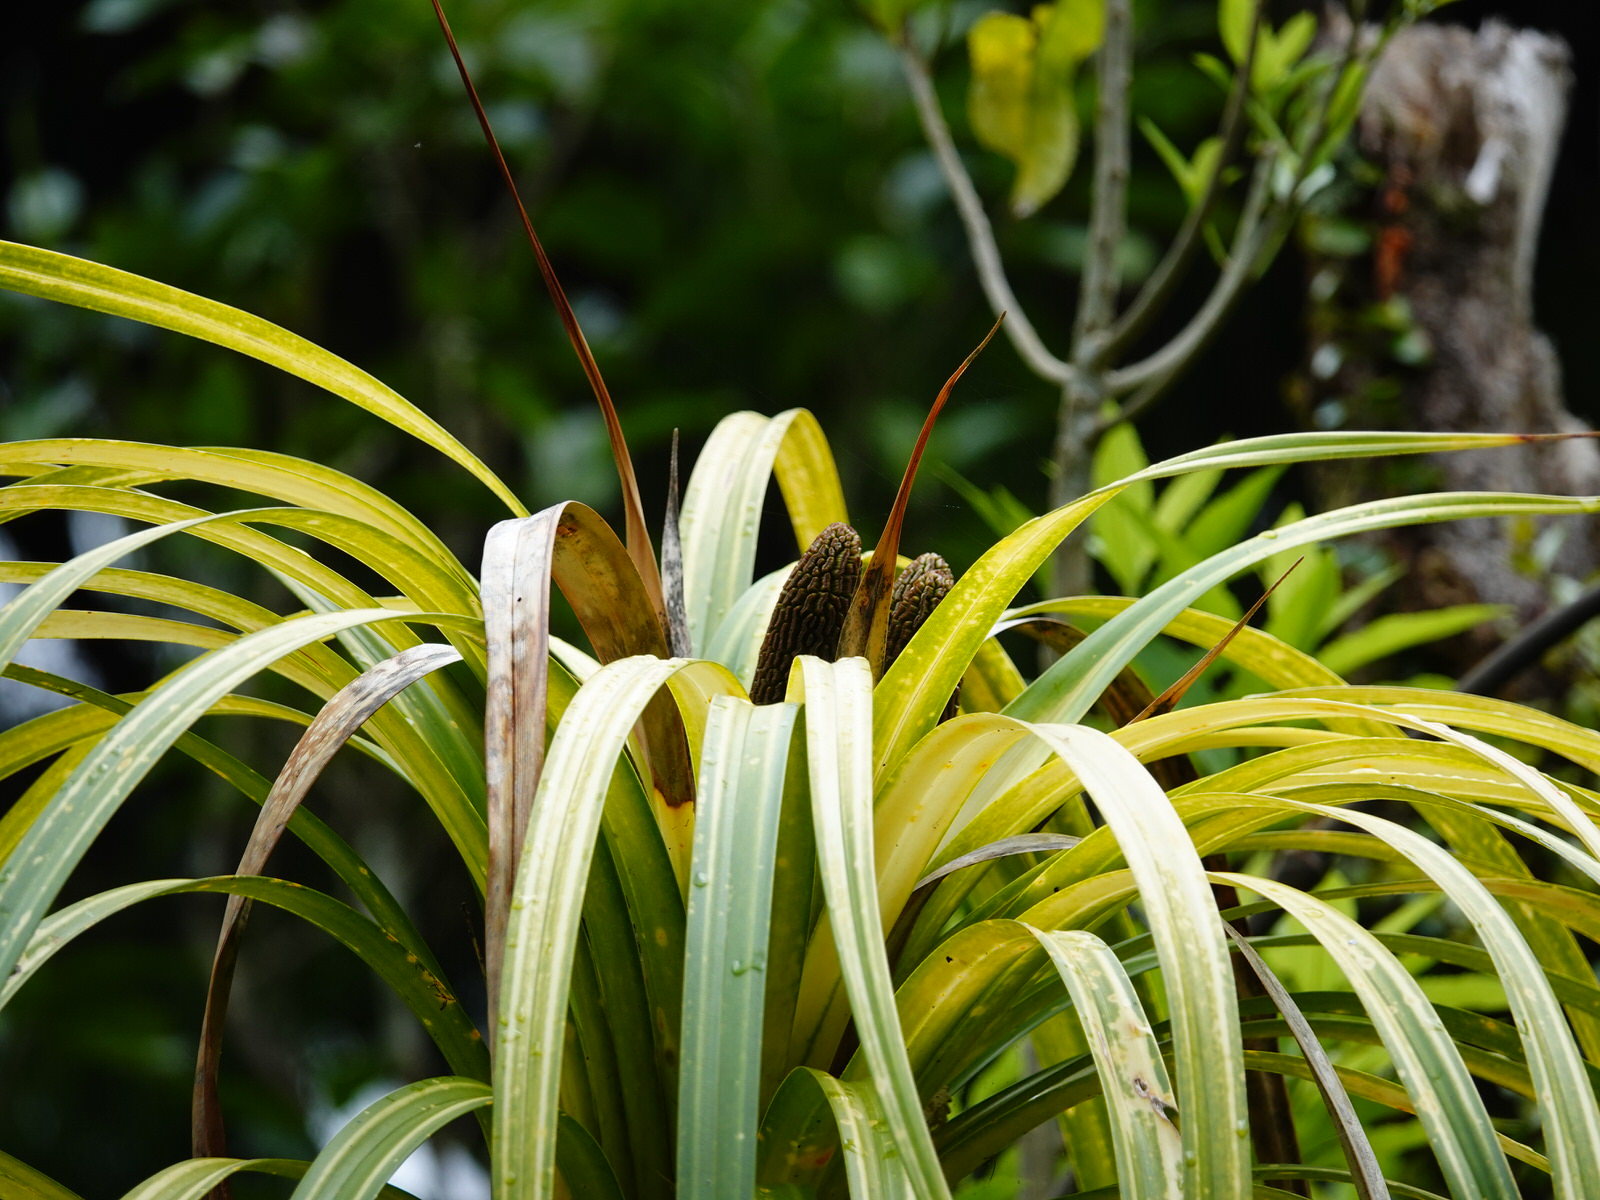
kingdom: Plantae
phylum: Tracheophyta
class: Liliopsida
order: Pandanales
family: Pandanaceae
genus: Freycinetia
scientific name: Freycinetia banksii
